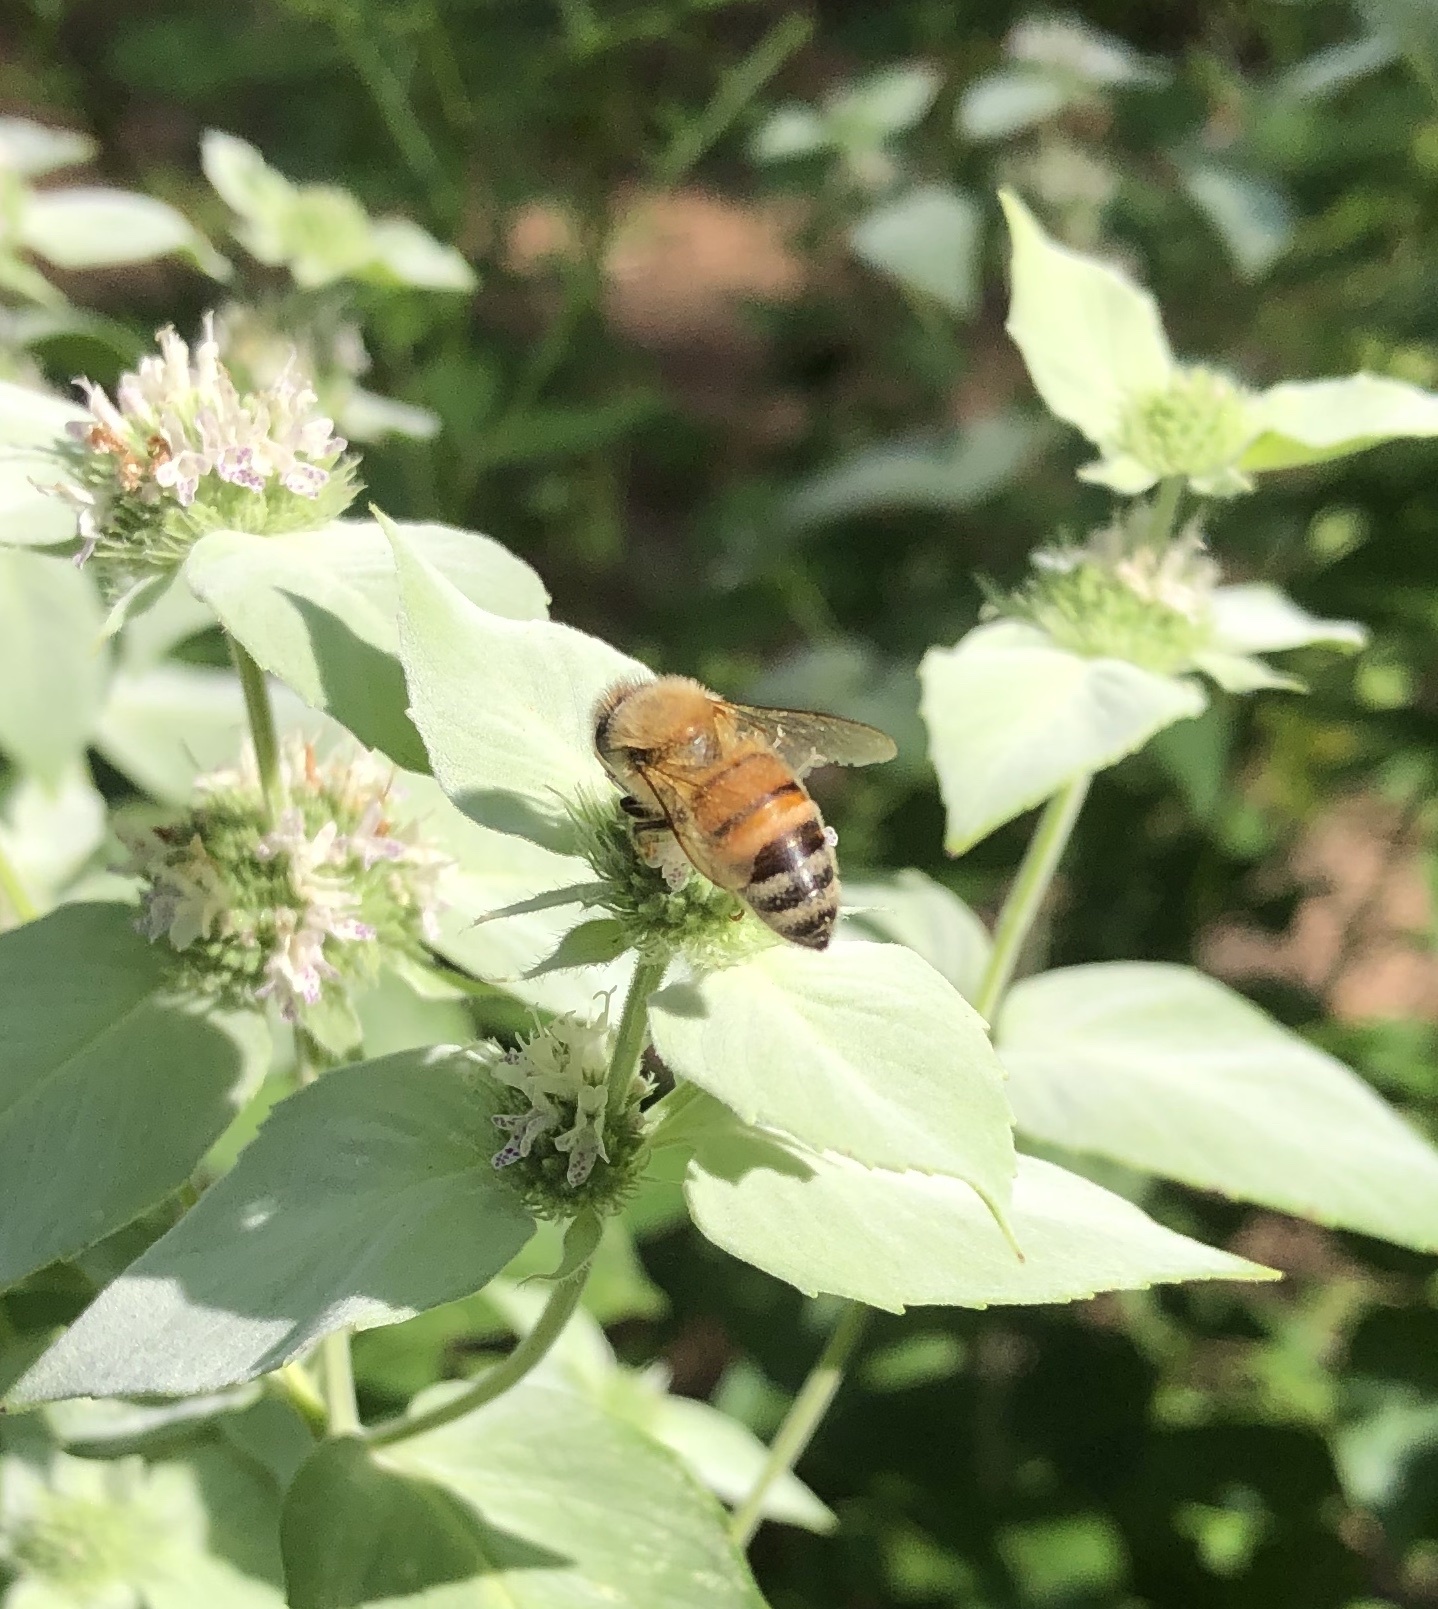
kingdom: Animalia
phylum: Arthropoda
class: Insecta
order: Hymenoptera
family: Apidae
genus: Apis
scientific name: Apis mellifera
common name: Honey bee
